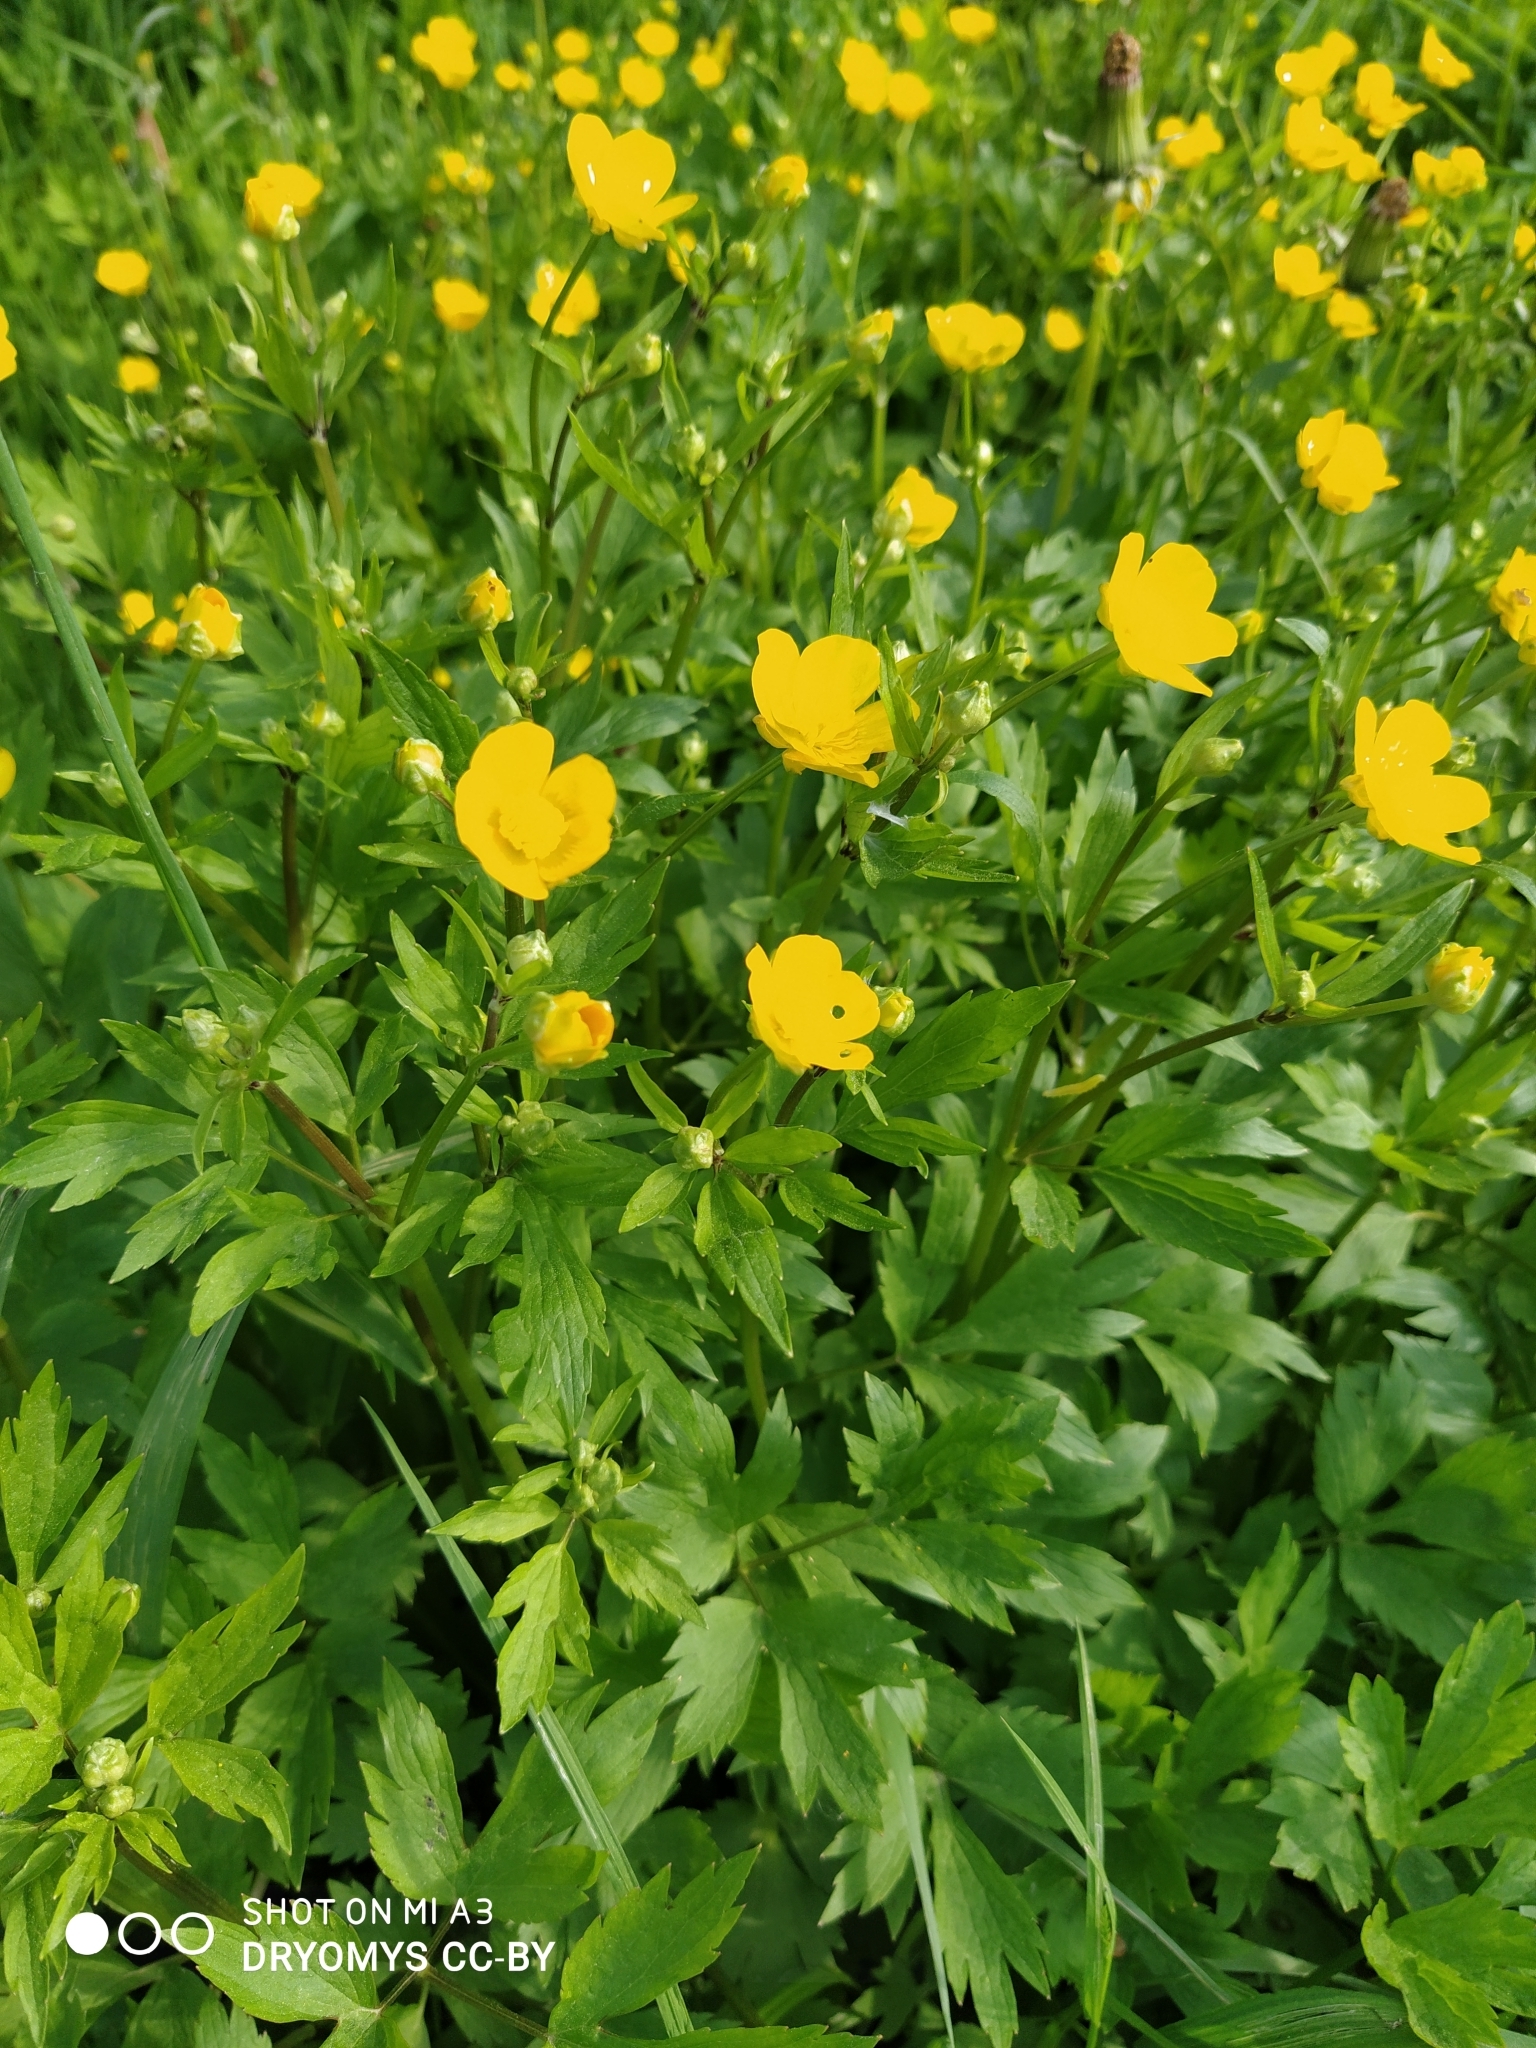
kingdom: Plantae
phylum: Tracheophyta
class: Magnoliopsida
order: Ranunculales
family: Ranunculaceae
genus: Ranunculus
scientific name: Ranunculus repens
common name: Creeping buttercup
